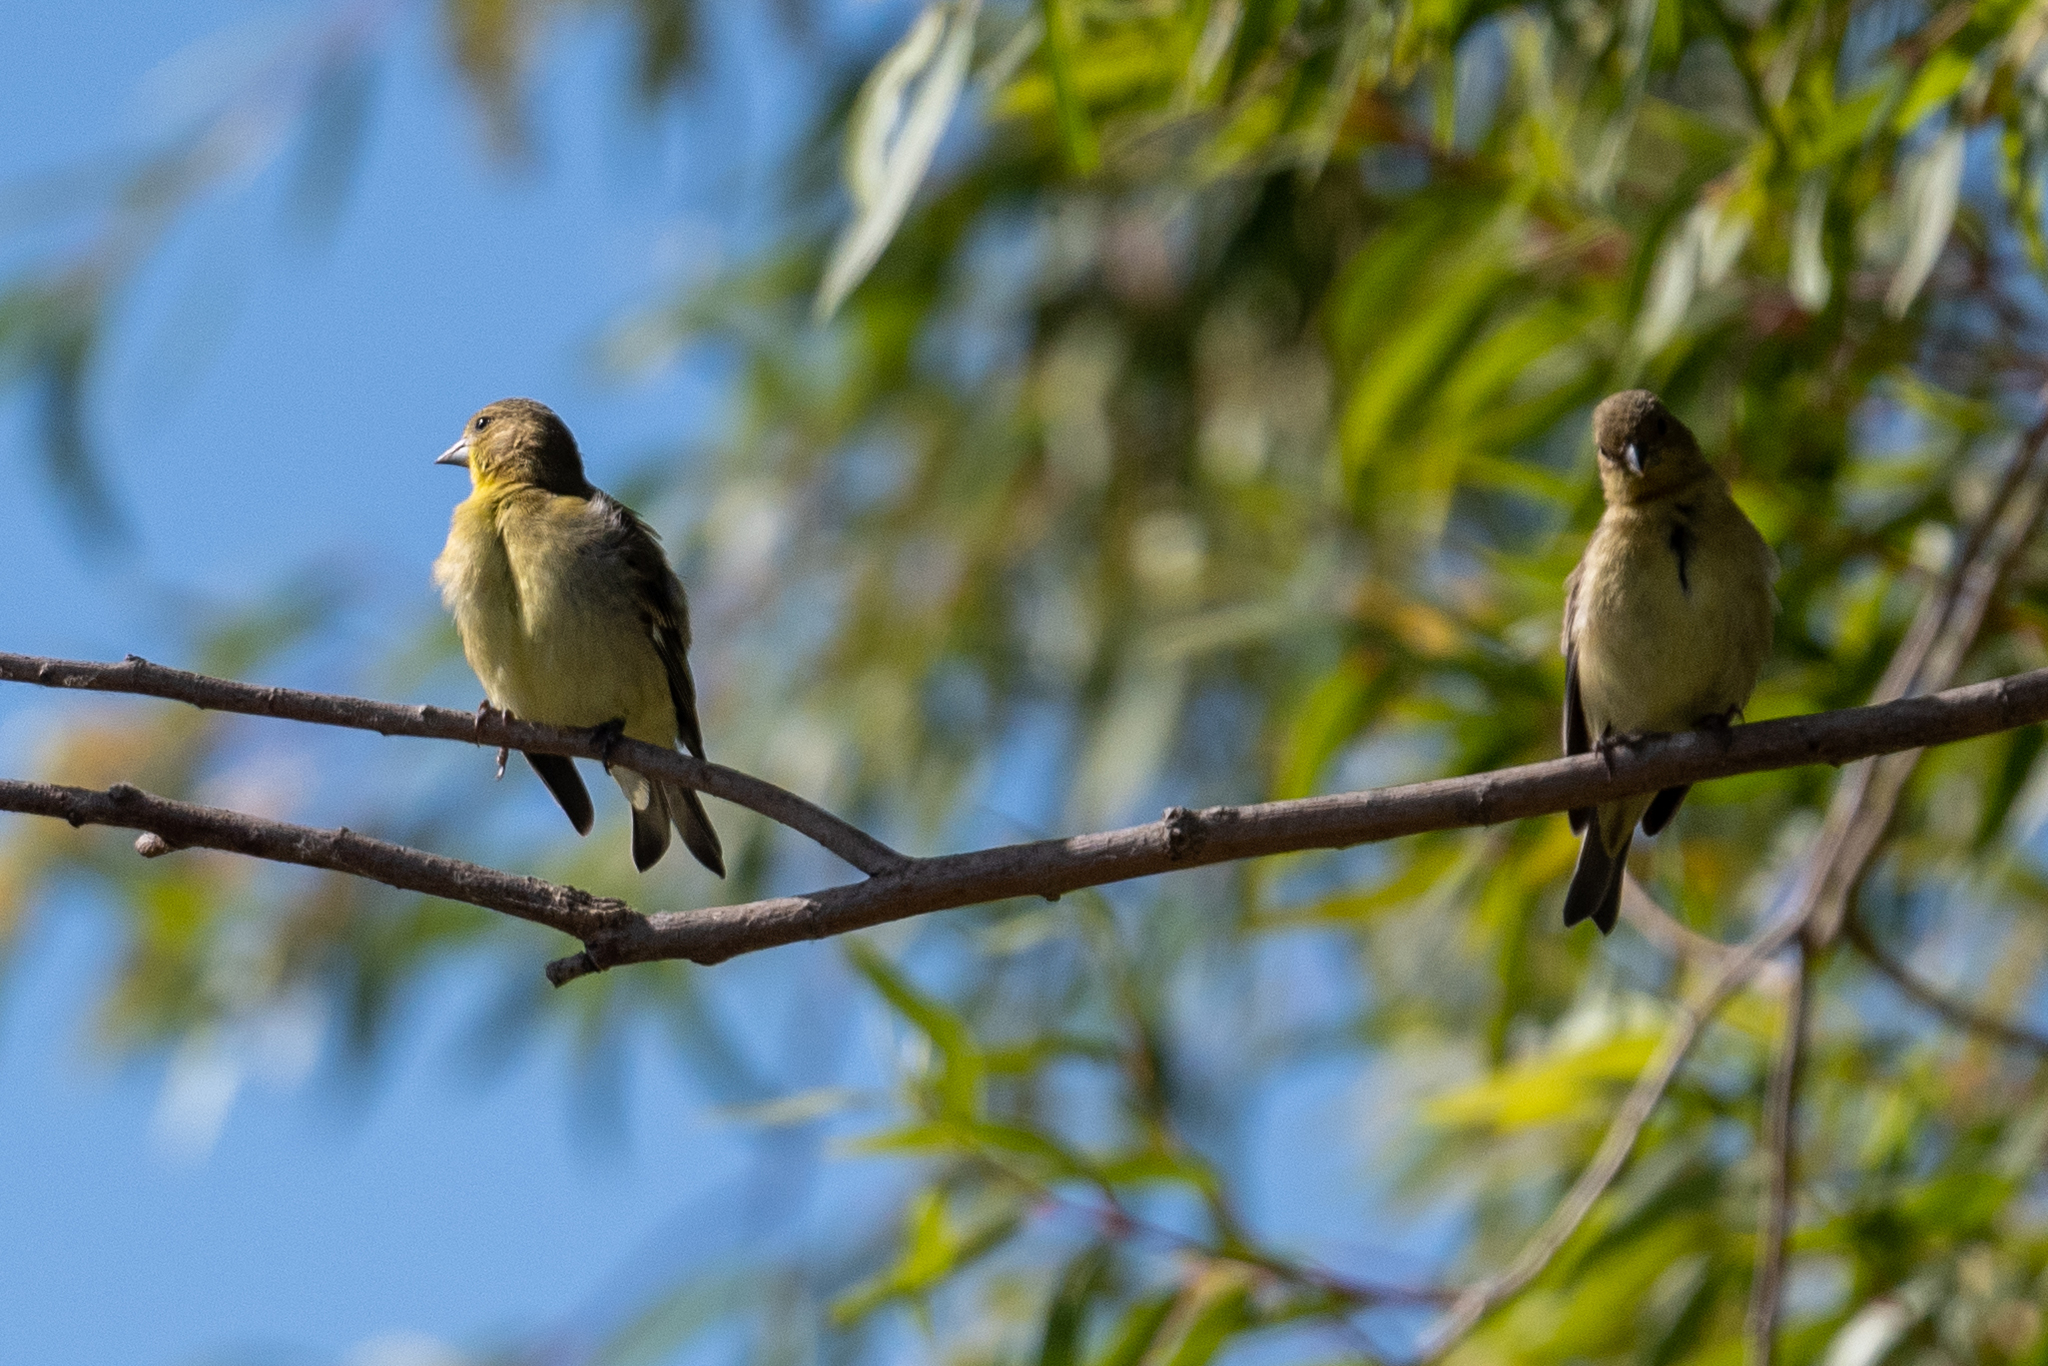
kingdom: Animalia
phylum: Chordata
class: Aves
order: Passeriformes
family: Fringillidae
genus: Spinus
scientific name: Spinus psaltria
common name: Lesser goldfinch
